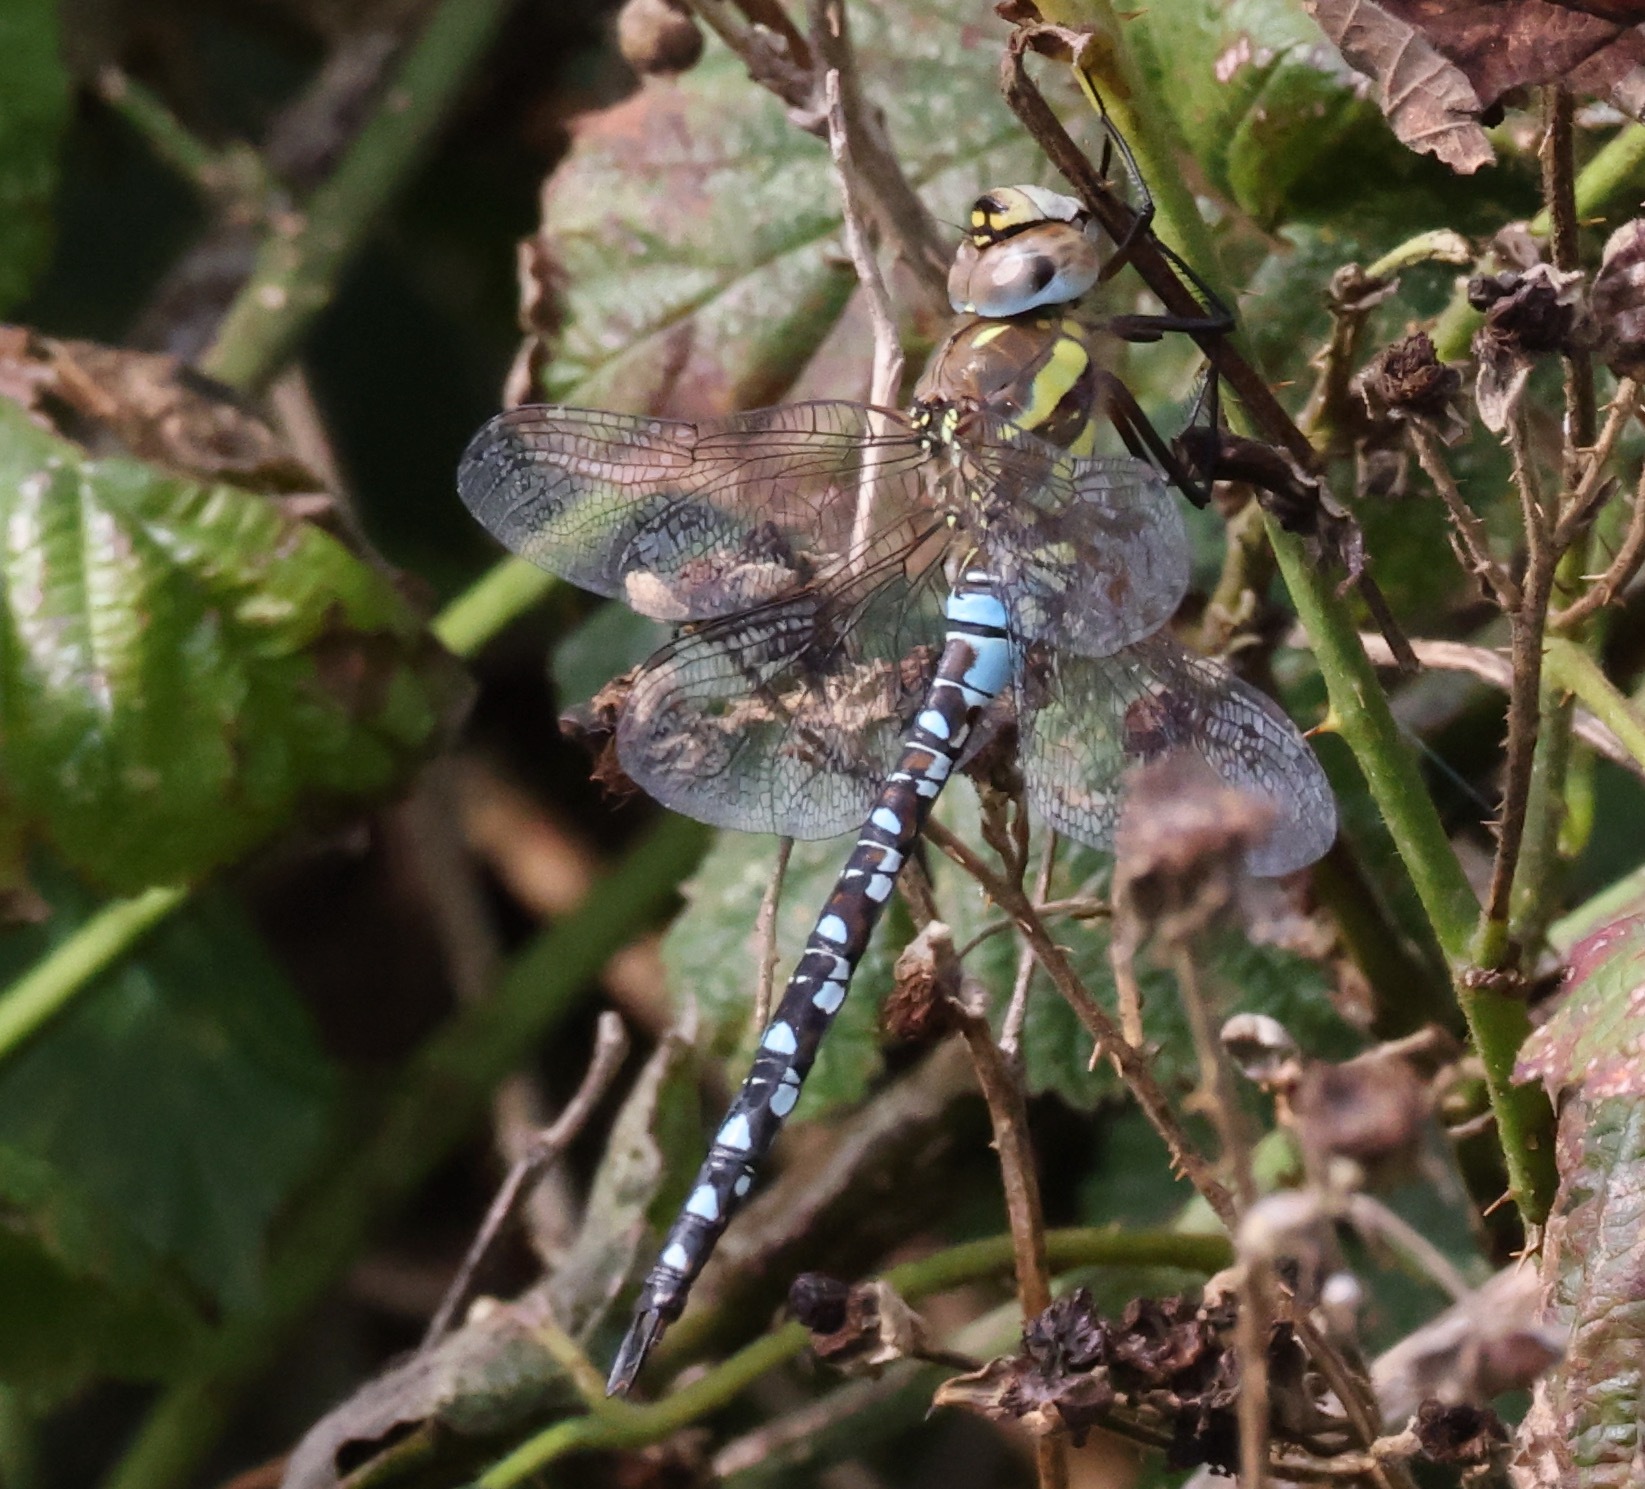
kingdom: Animalia
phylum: Arthropoda
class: Insecta
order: Odonata
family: Aeshnidae
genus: Aeshna
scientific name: Aeshna mixta
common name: Migrant hawker
